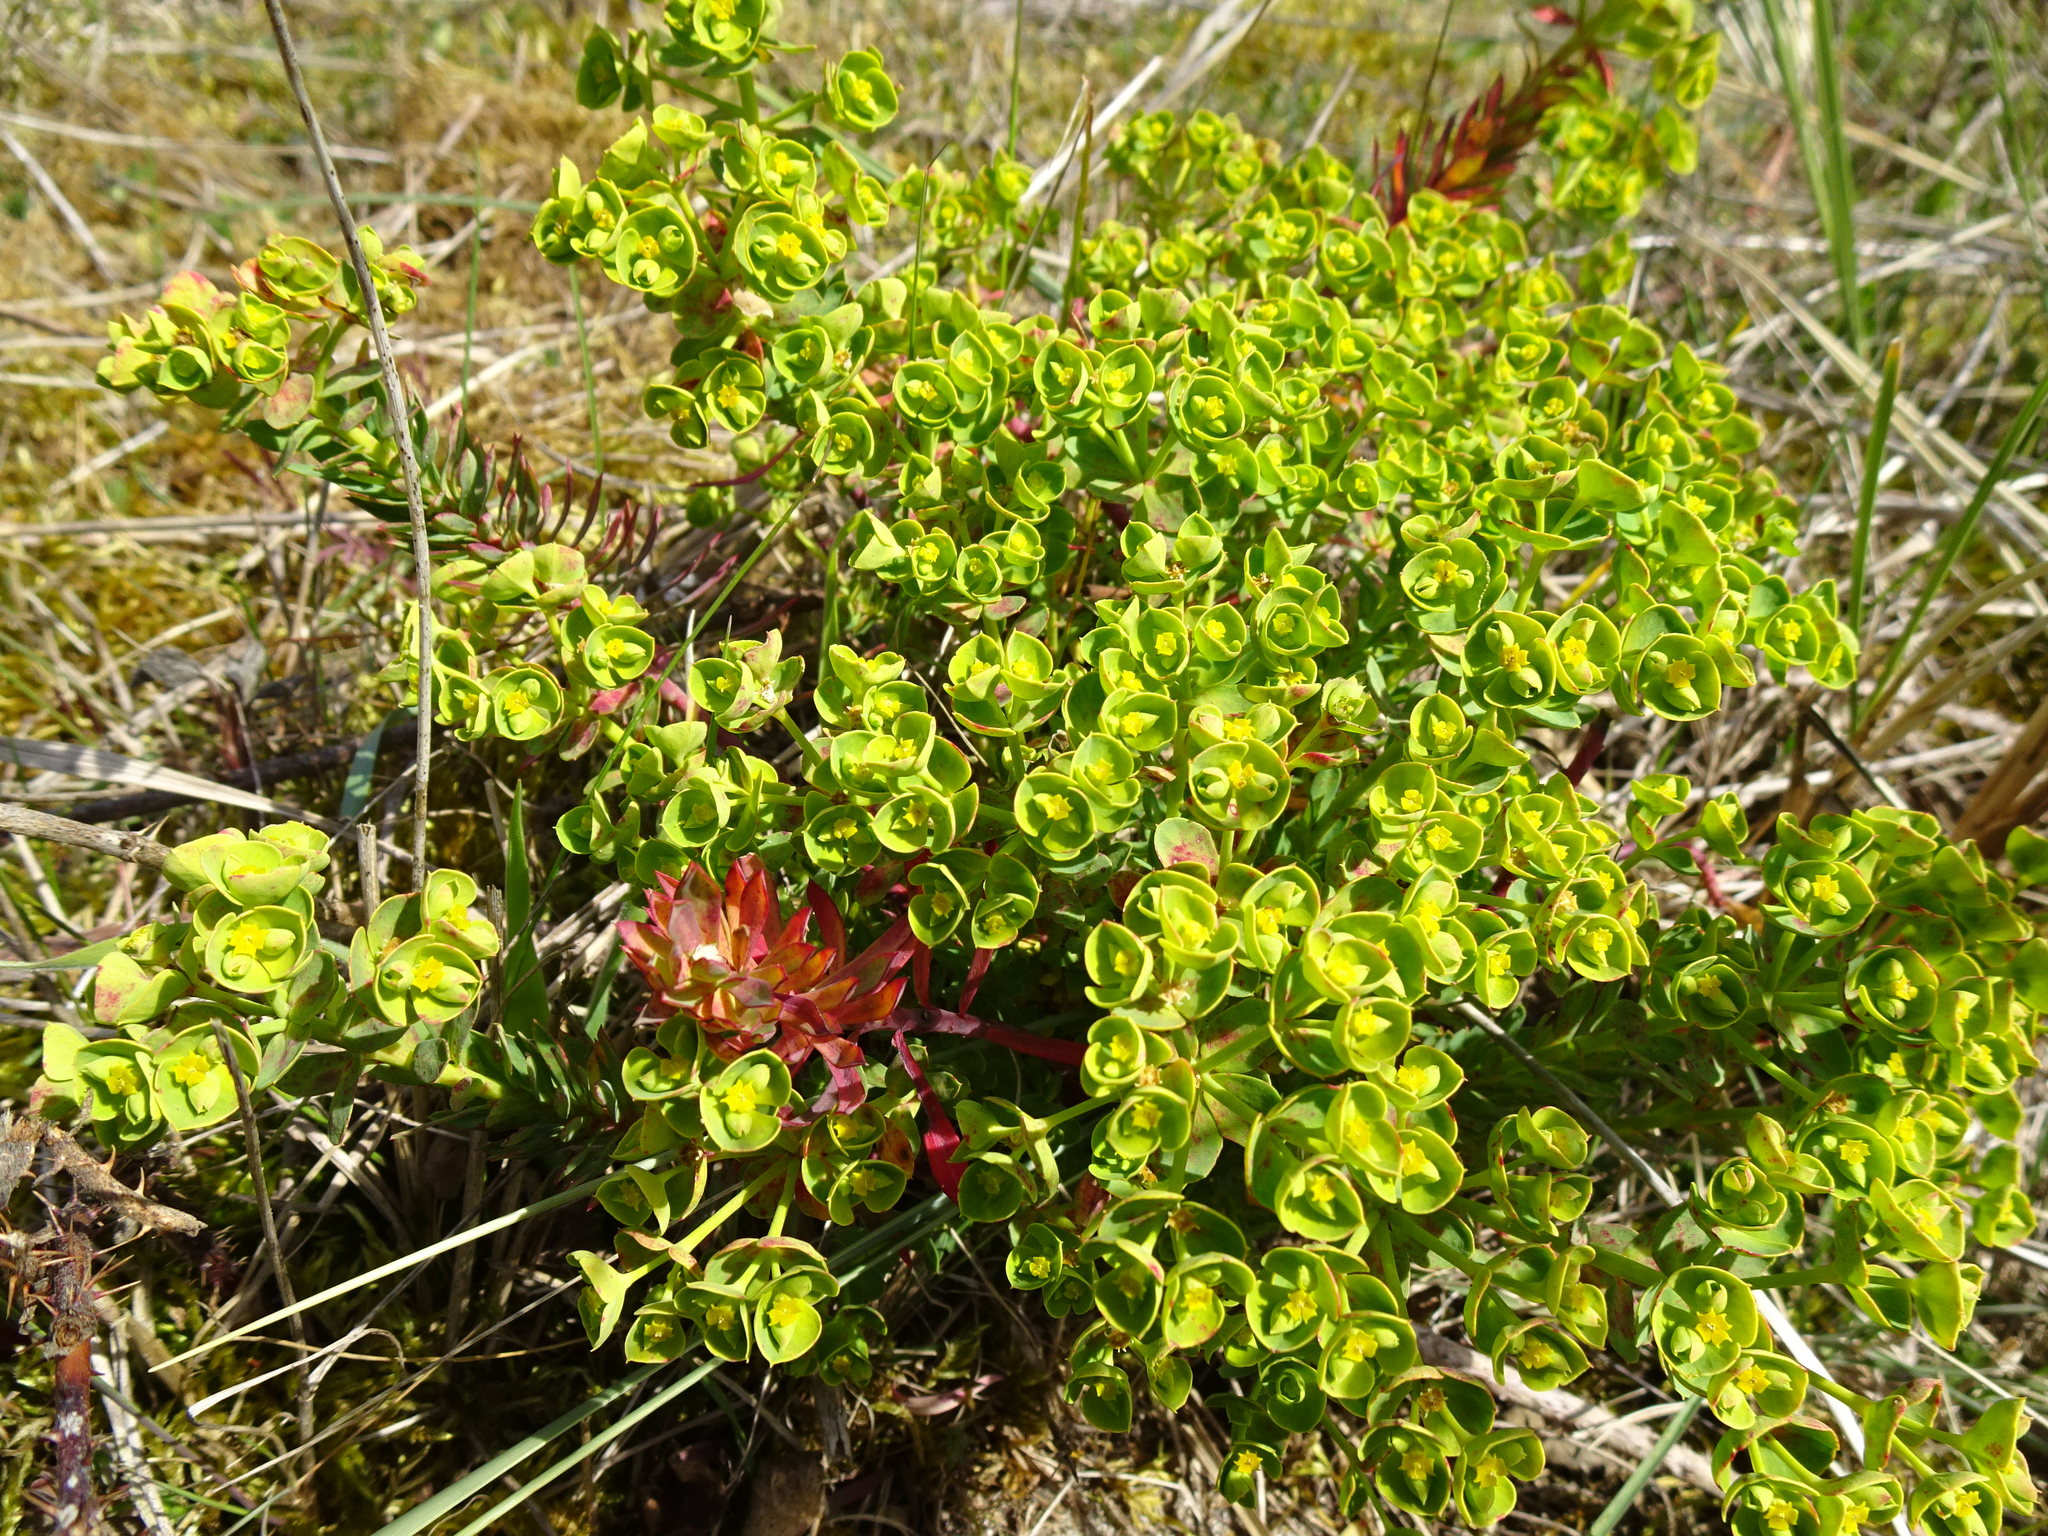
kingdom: Plantae
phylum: Tracheophyta
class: Magnoliopsida
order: Malpighiales
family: Euphorbiaceae
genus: Euphorbia
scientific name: Euphorbia portlandica
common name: Portland spurge
